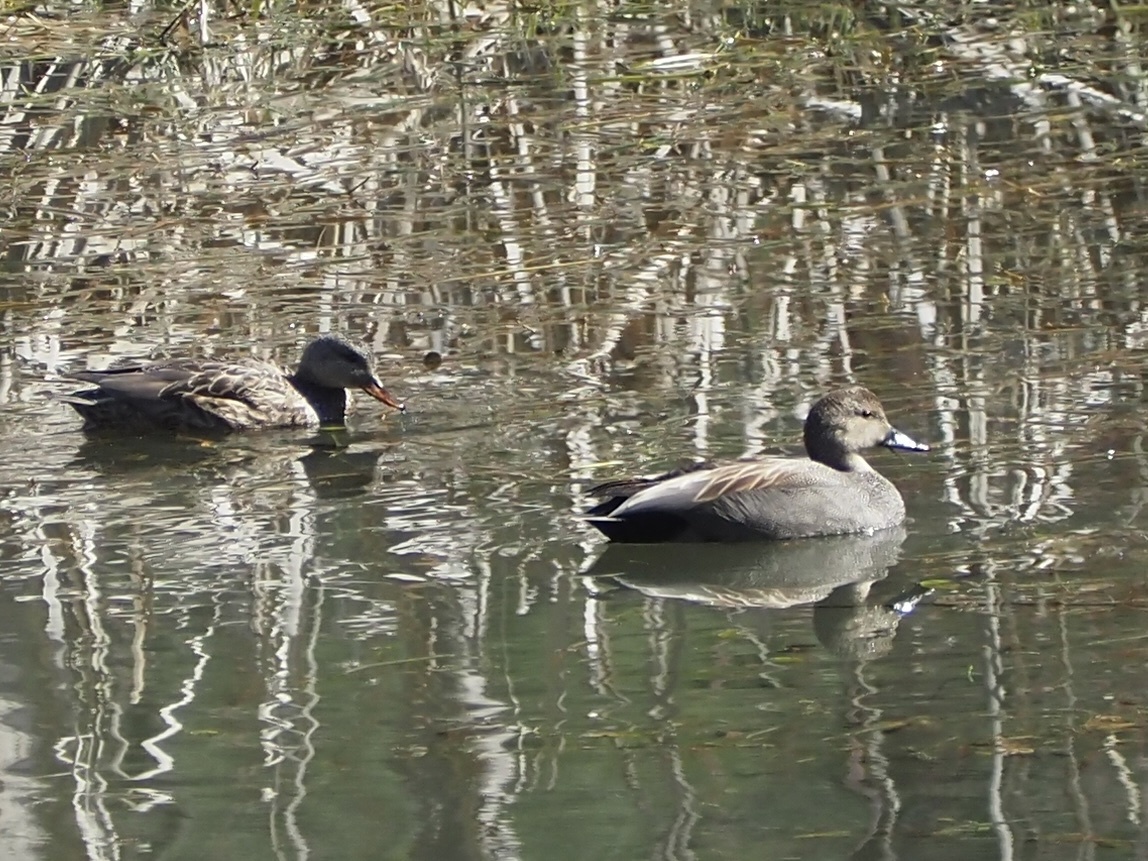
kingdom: Animalia
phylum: Chordata
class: Aves
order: Anseriformes
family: Anatidae
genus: Mareca
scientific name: Mareca strepera
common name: Gadwall
